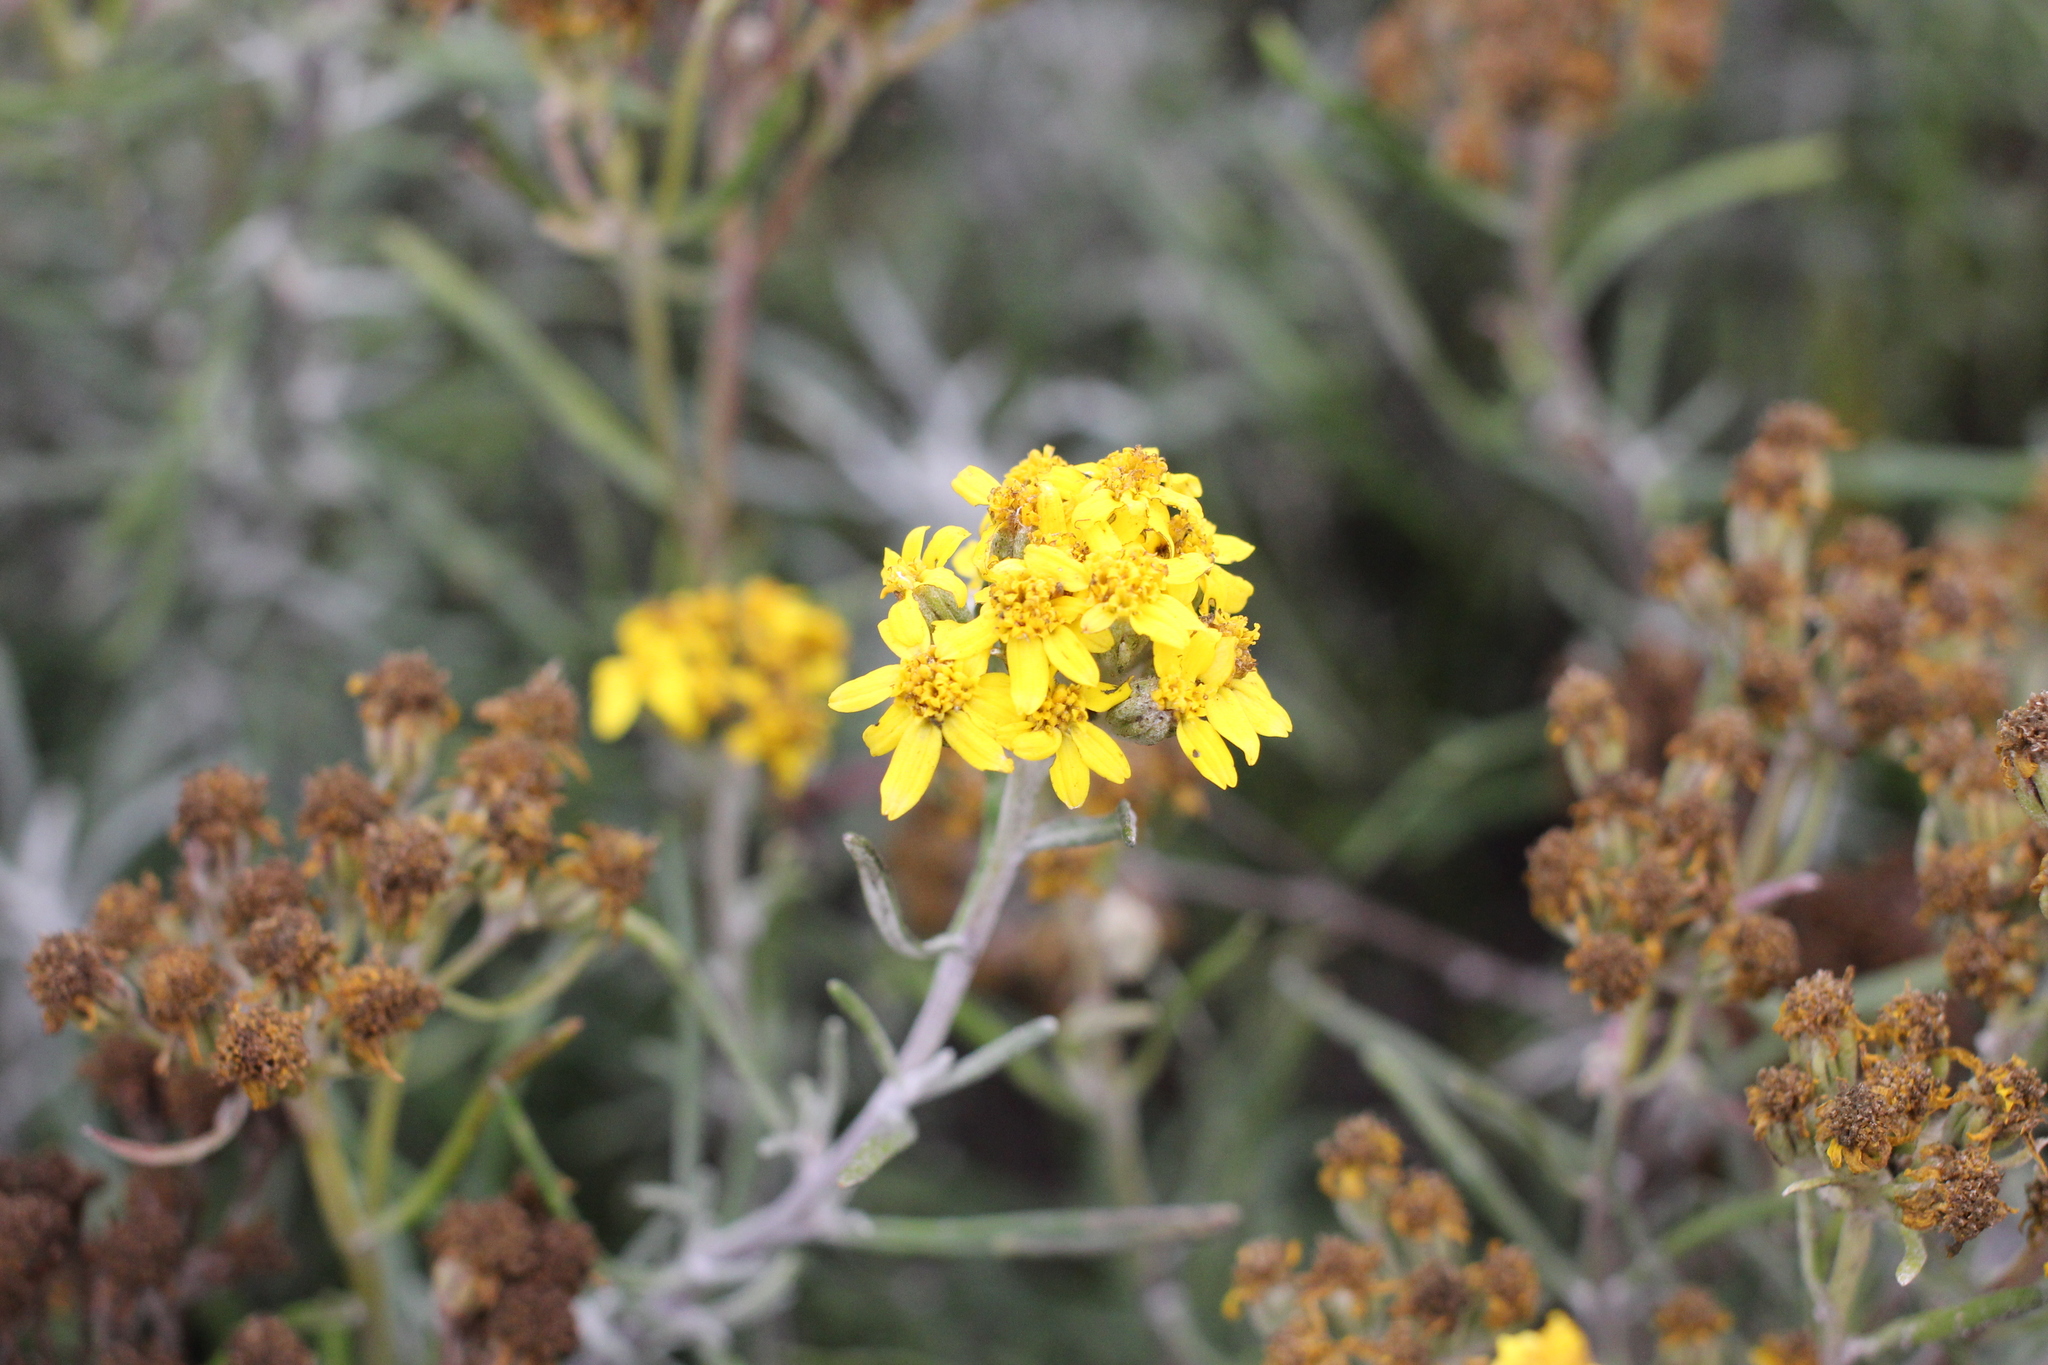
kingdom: Plantae
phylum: Tracheophyta
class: Magnoliopsida
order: Asterales
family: Asteraceae
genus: Eriophyllum
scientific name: Eriophyllum staechadifolium
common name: Lizardtail
